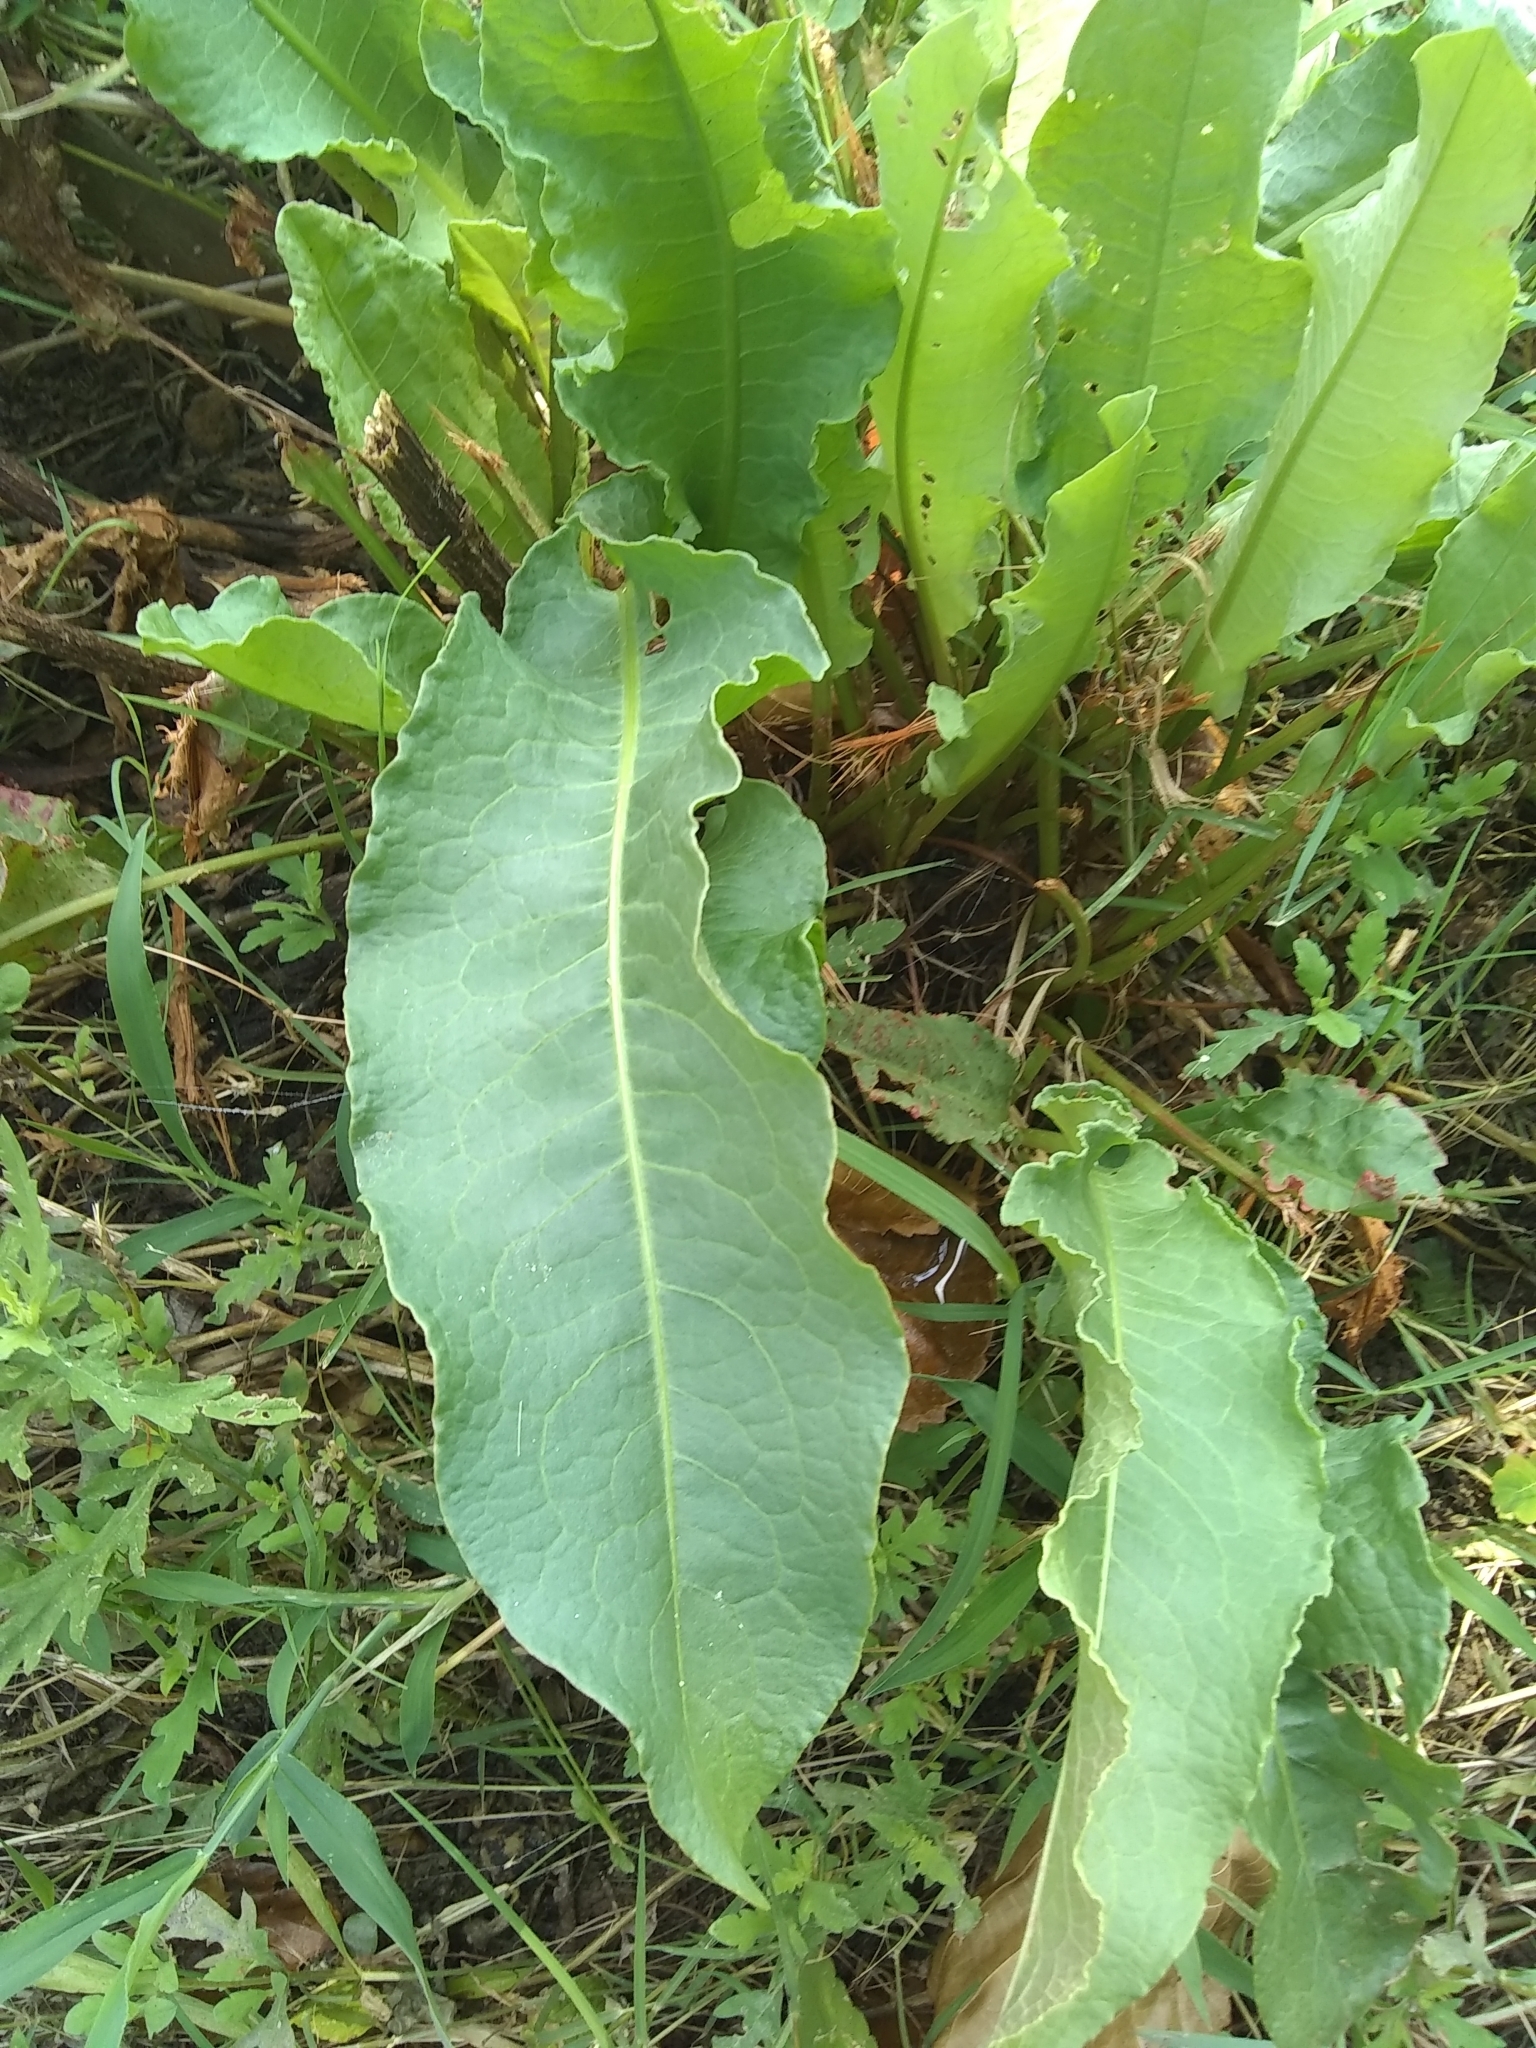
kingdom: Plantae
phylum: Tracheophyta
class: Magnoliopsida
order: Caryophyllales
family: Polygonaceae
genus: Rumex
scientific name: Rumex crispus
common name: Curled dock
